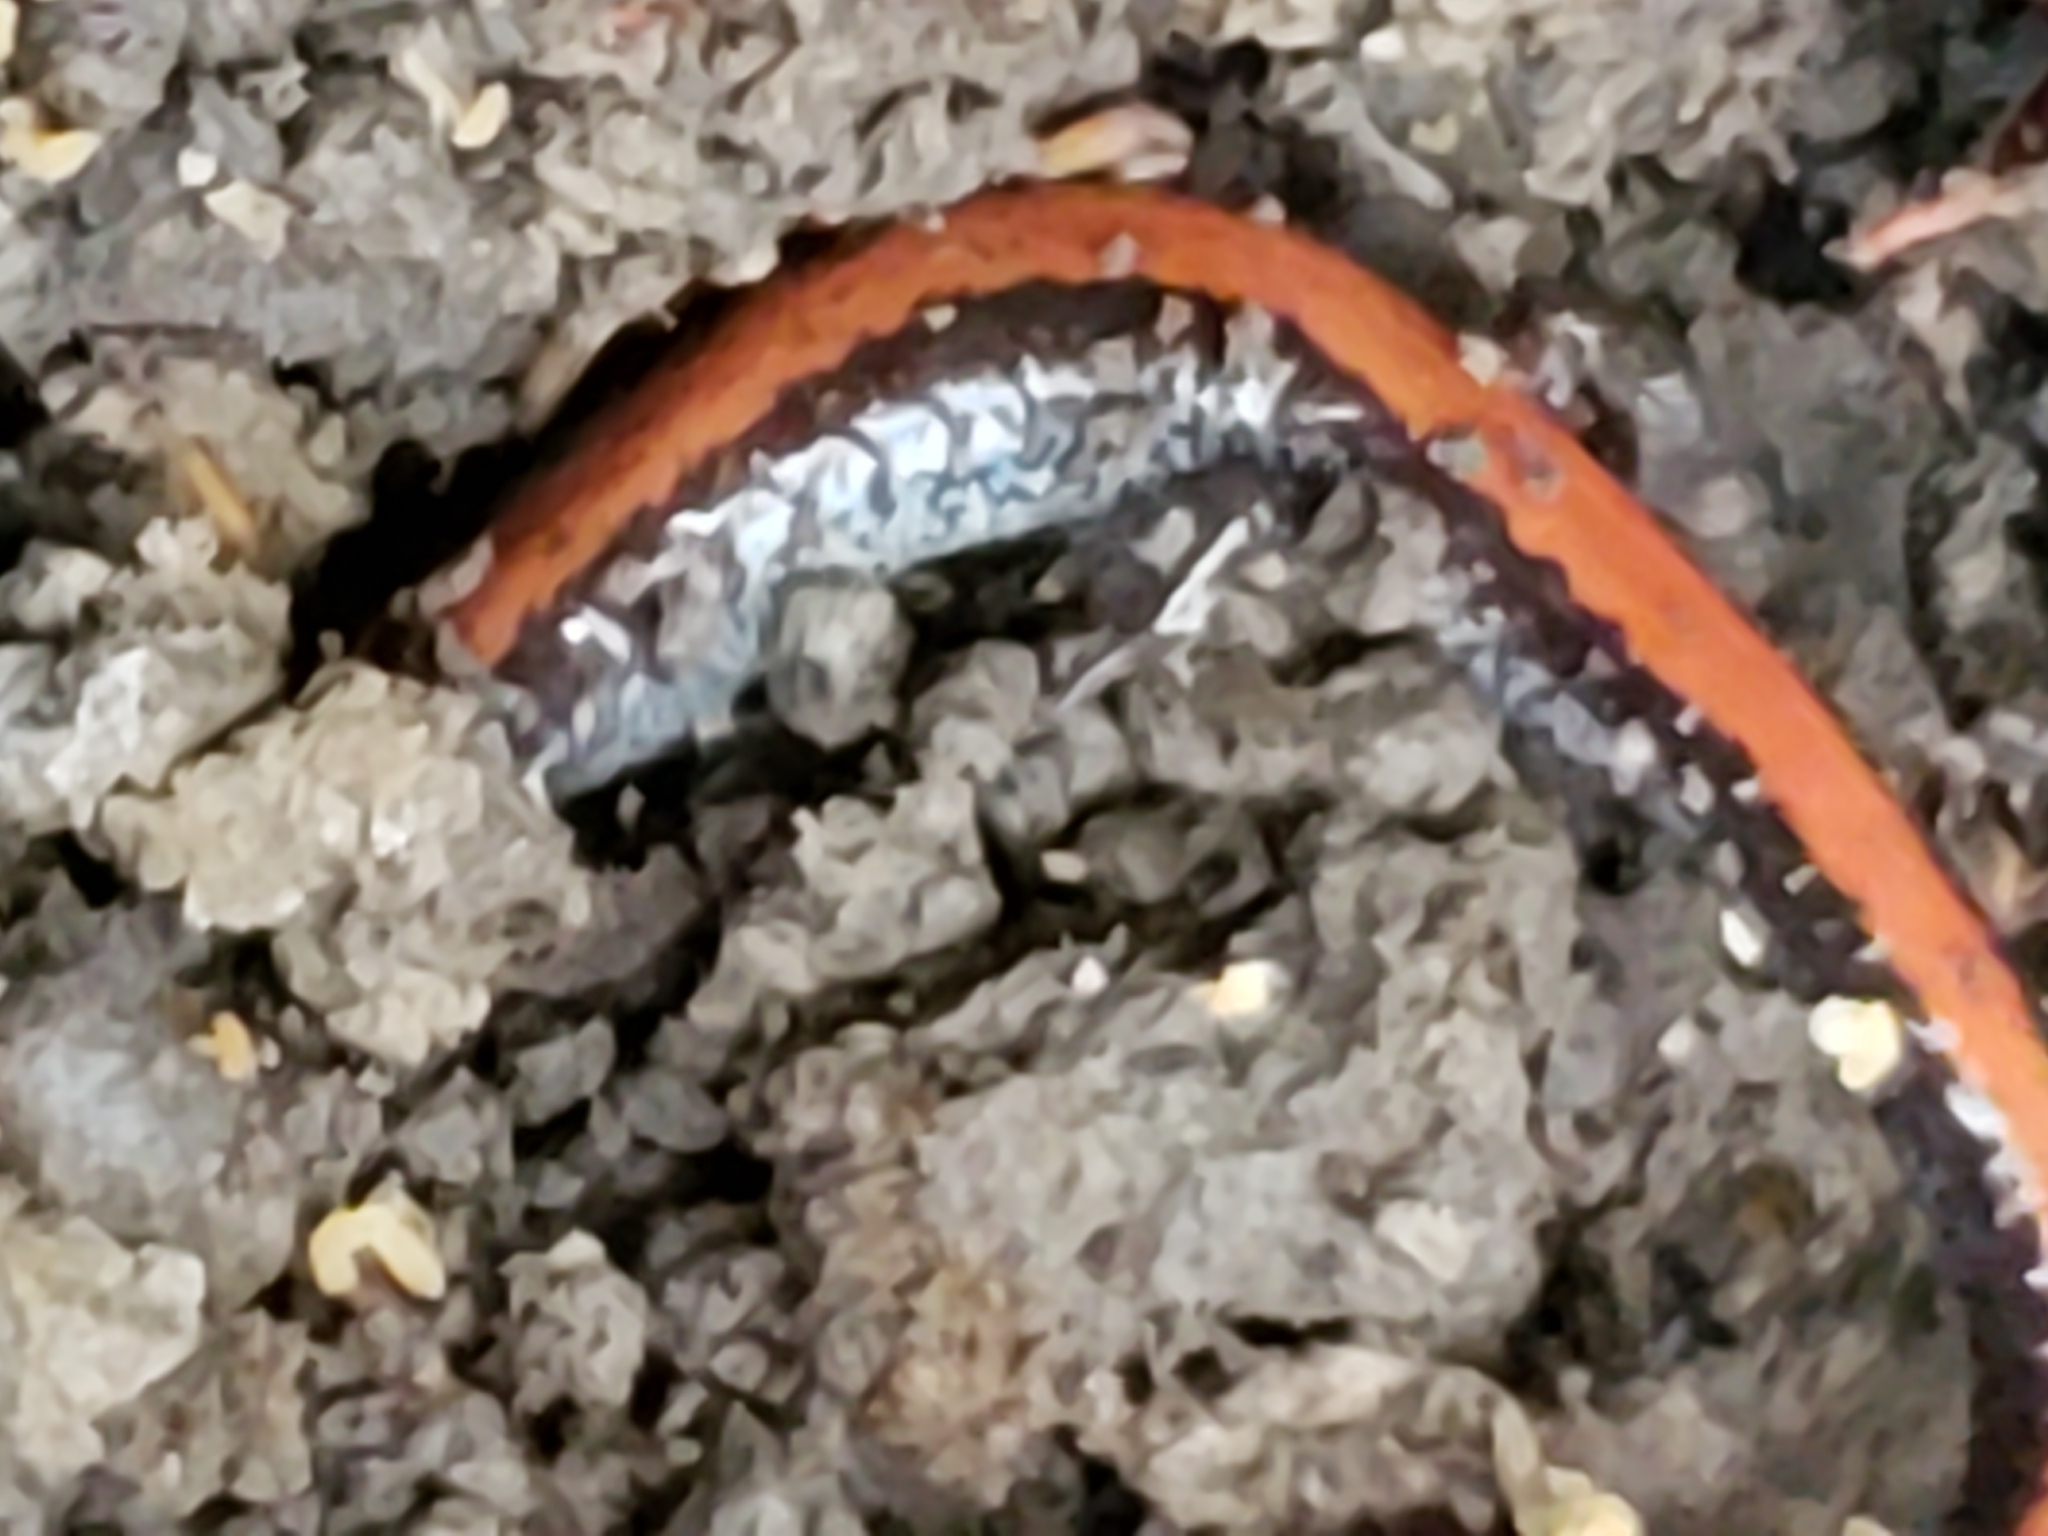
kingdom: Animalia
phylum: Chordata
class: Amphibia
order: Caudata
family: Plethodontidae
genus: Plethodon
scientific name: Plethodon cinereus
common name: Redback salamander
